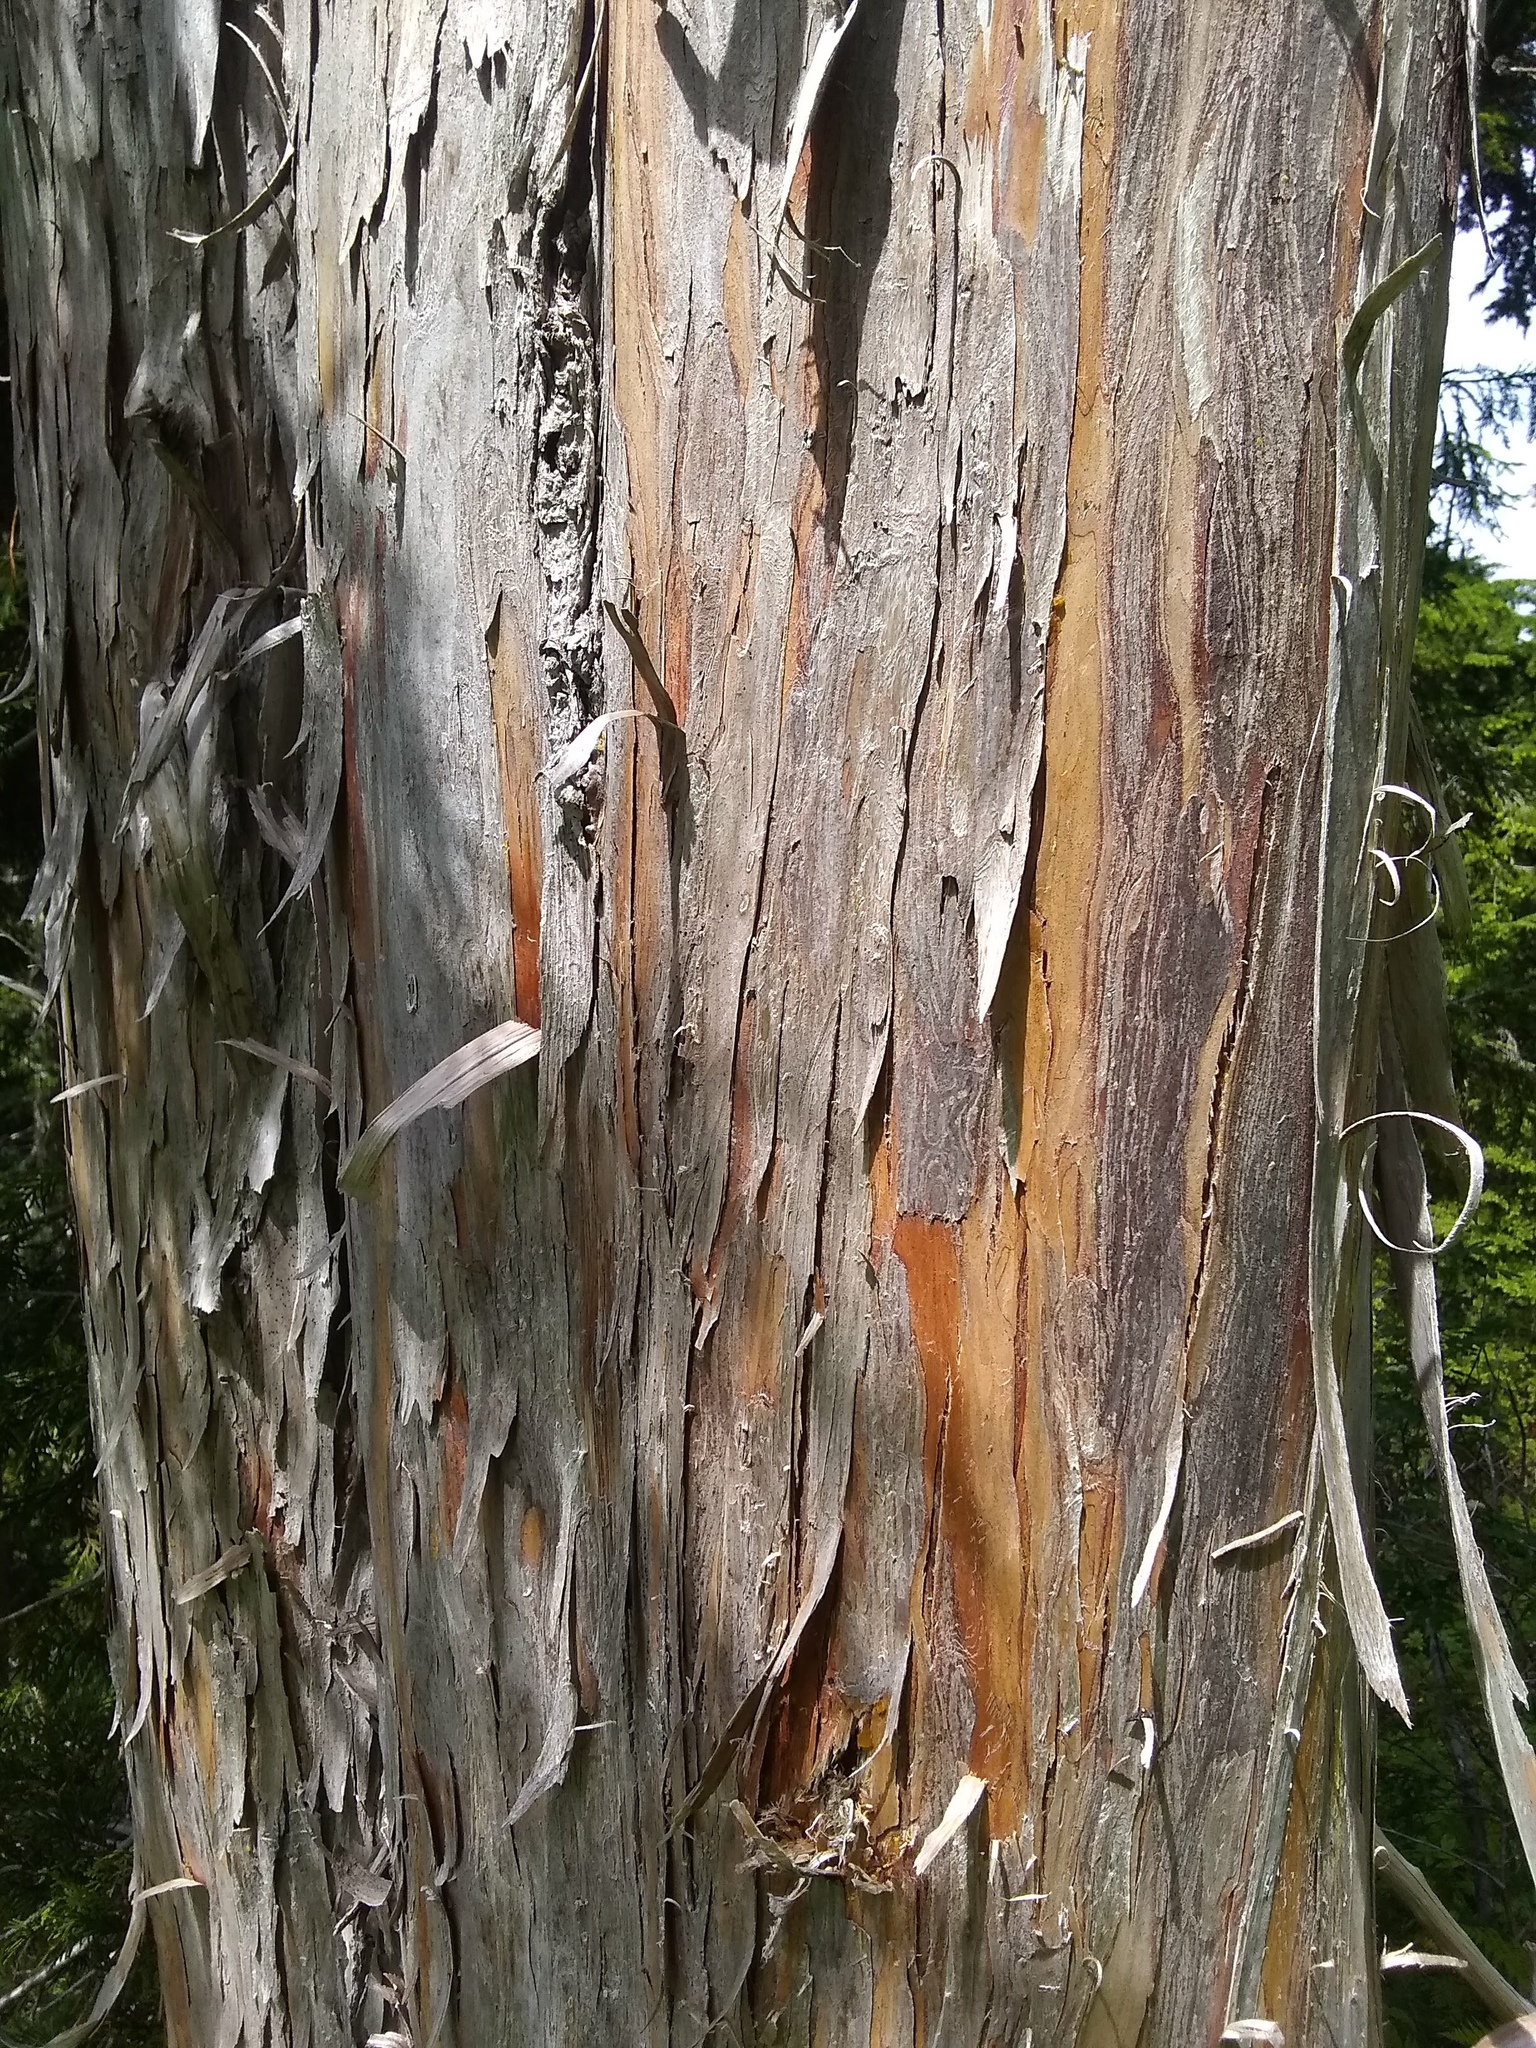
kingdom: Plantae
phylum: Tracheophyta
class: Pinopsida
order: Pinales
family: Cupressaceae
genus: Xanthocyparis
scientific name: Xanthocyparis nootkatensis
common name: Nootka cypress
